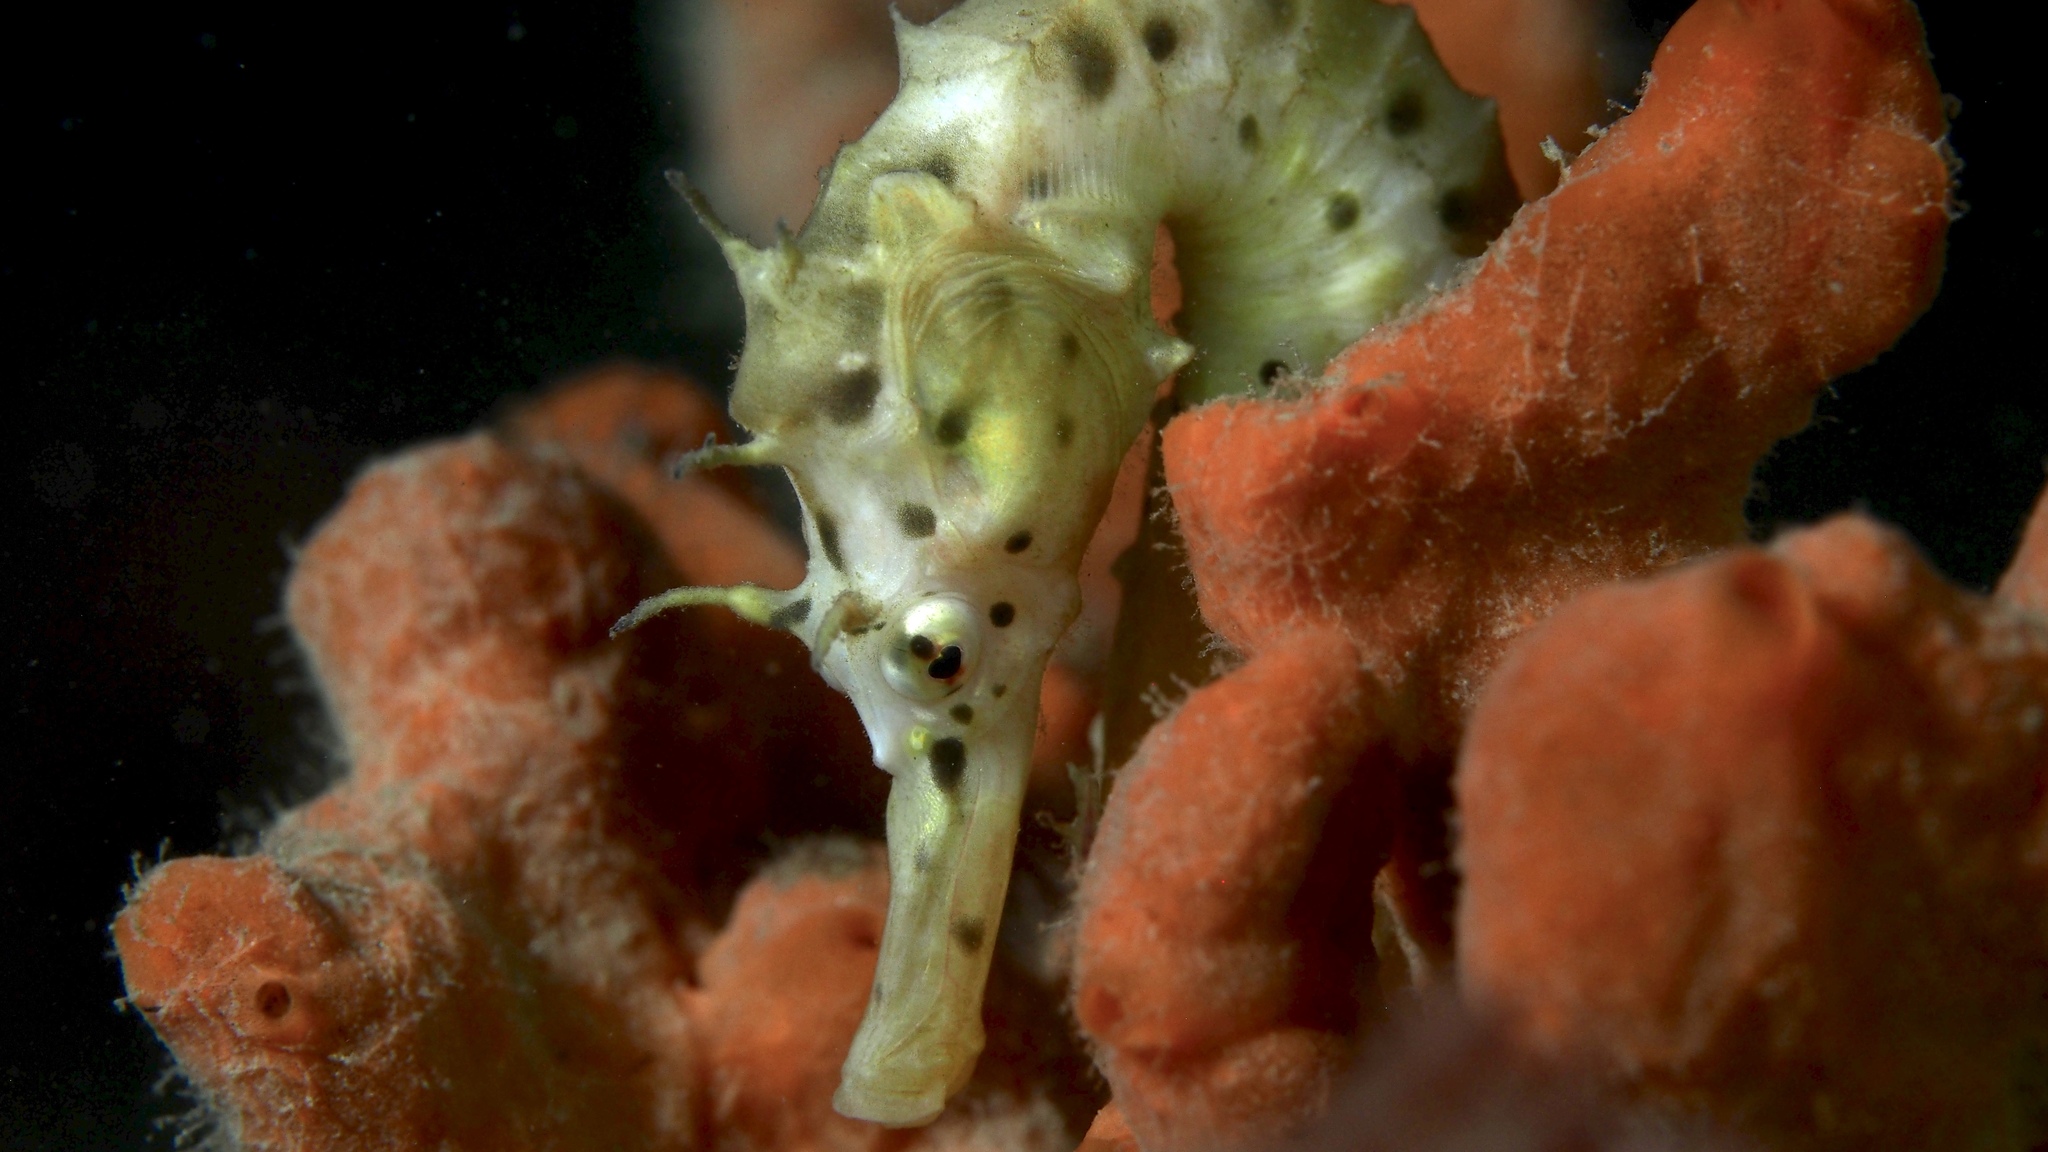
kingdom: Animalia
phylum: Chordata
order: Syngnathiformes
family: Syngnathidae
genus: Hippocampus
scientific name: Hippocampus abdominalis
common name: Big-belly seahorse
